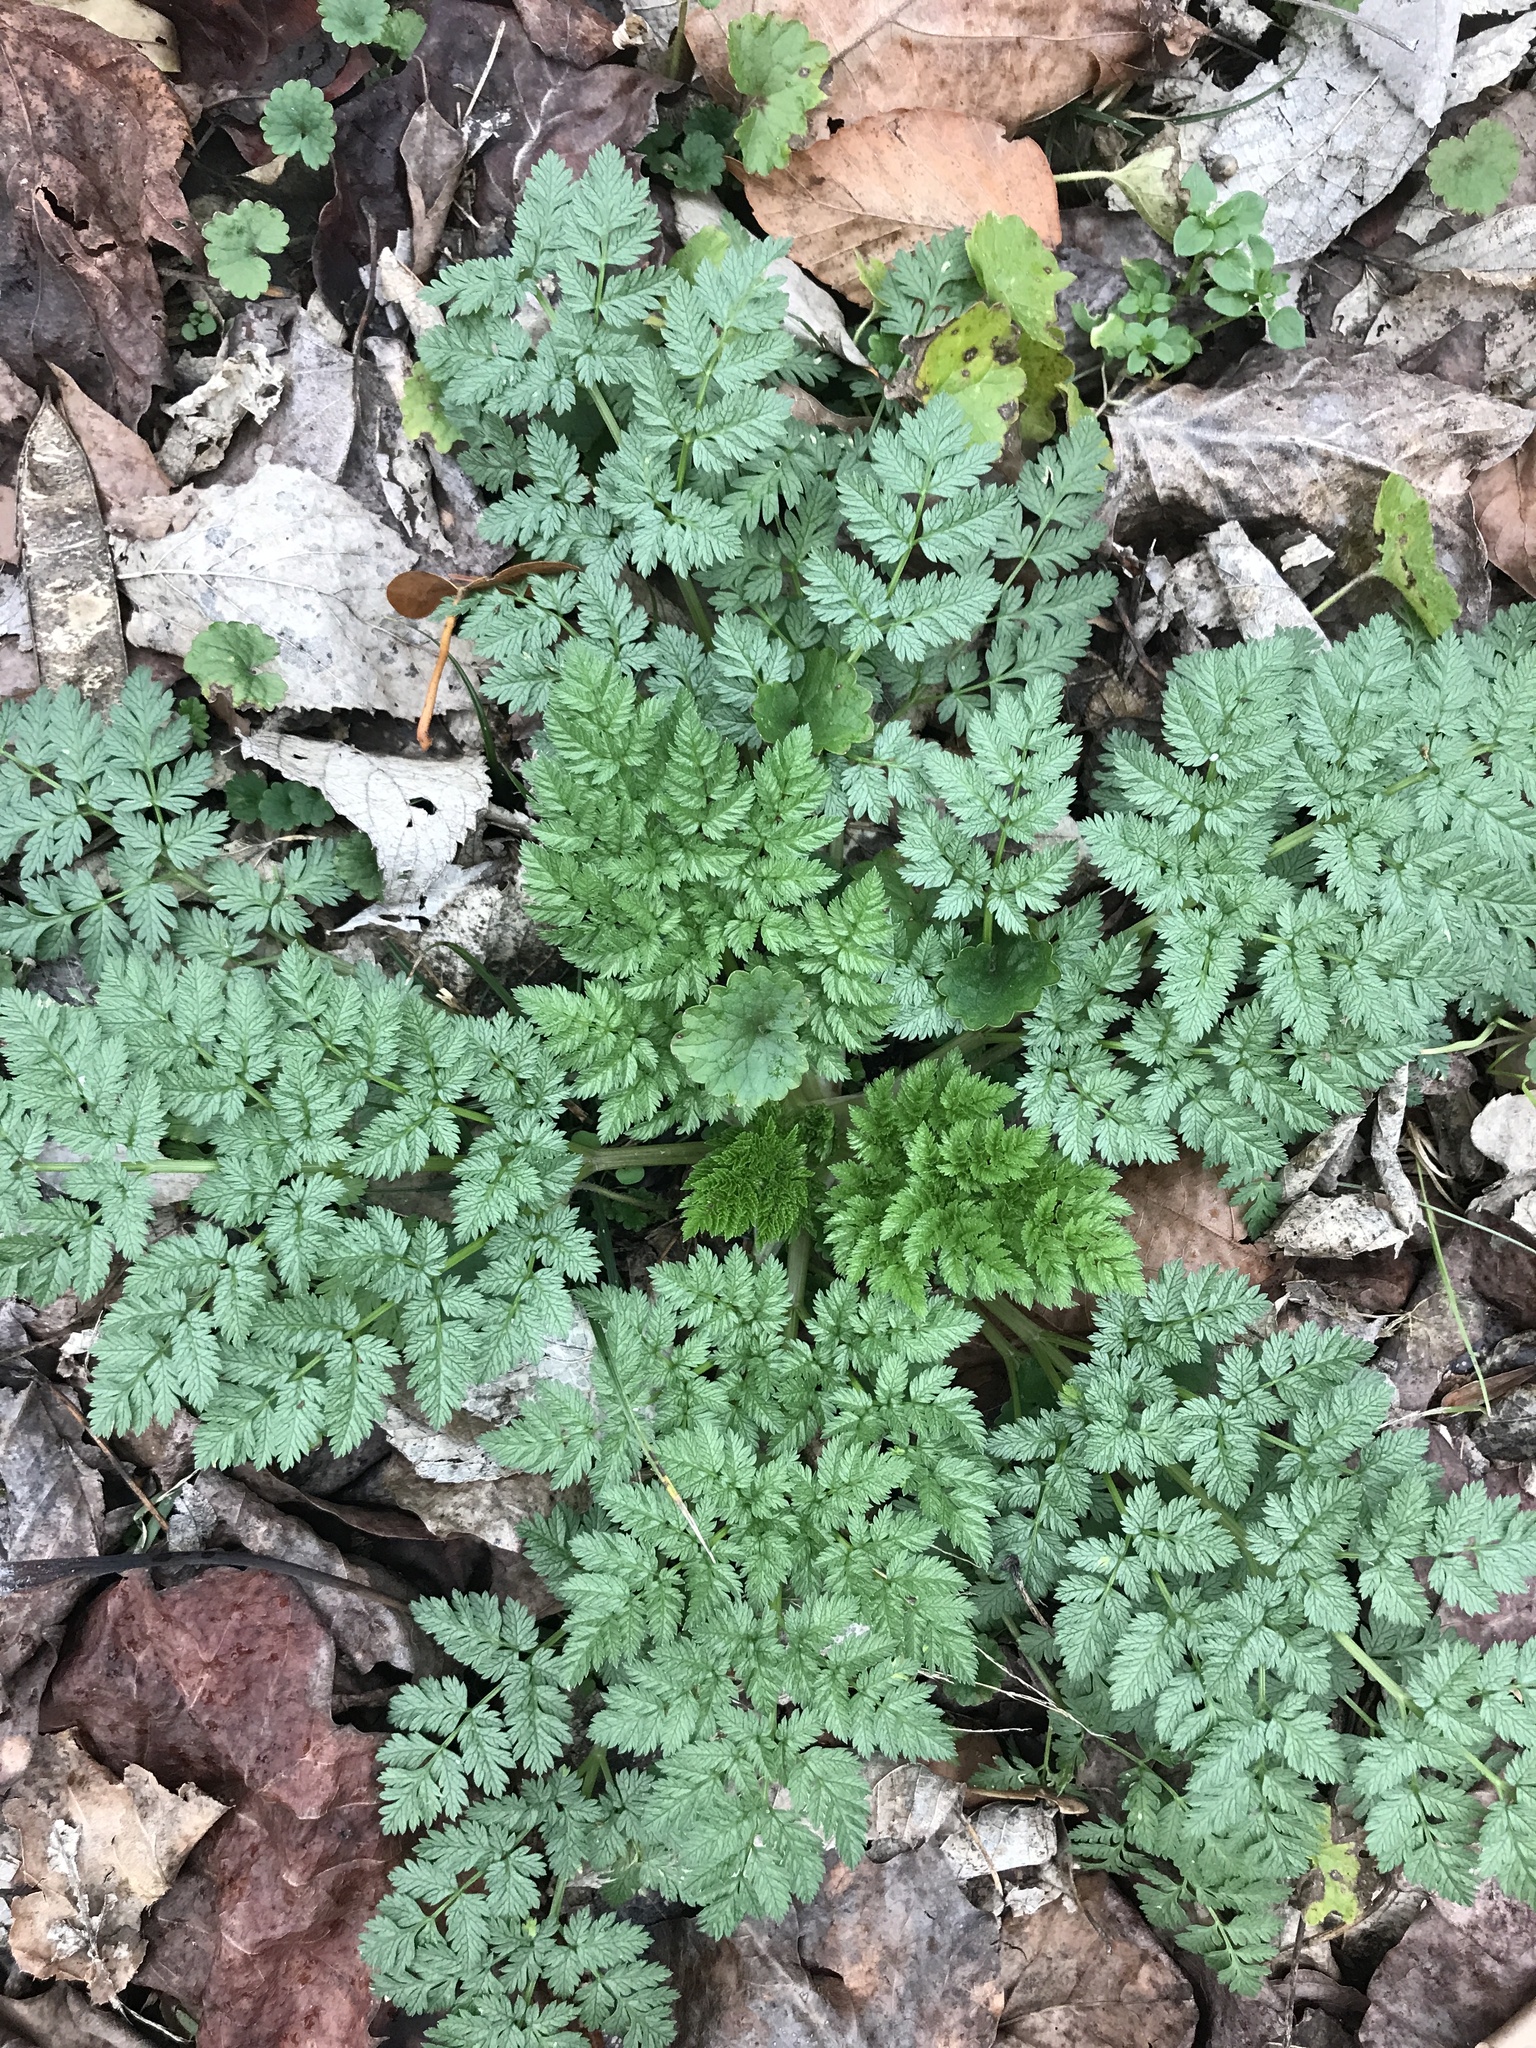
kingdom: Plantae
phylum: Tracheophyta
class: Magnoliopsida
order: Apiales
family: Apiaceae
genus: Conium
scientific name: Conium maculatum
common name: Hemlock
